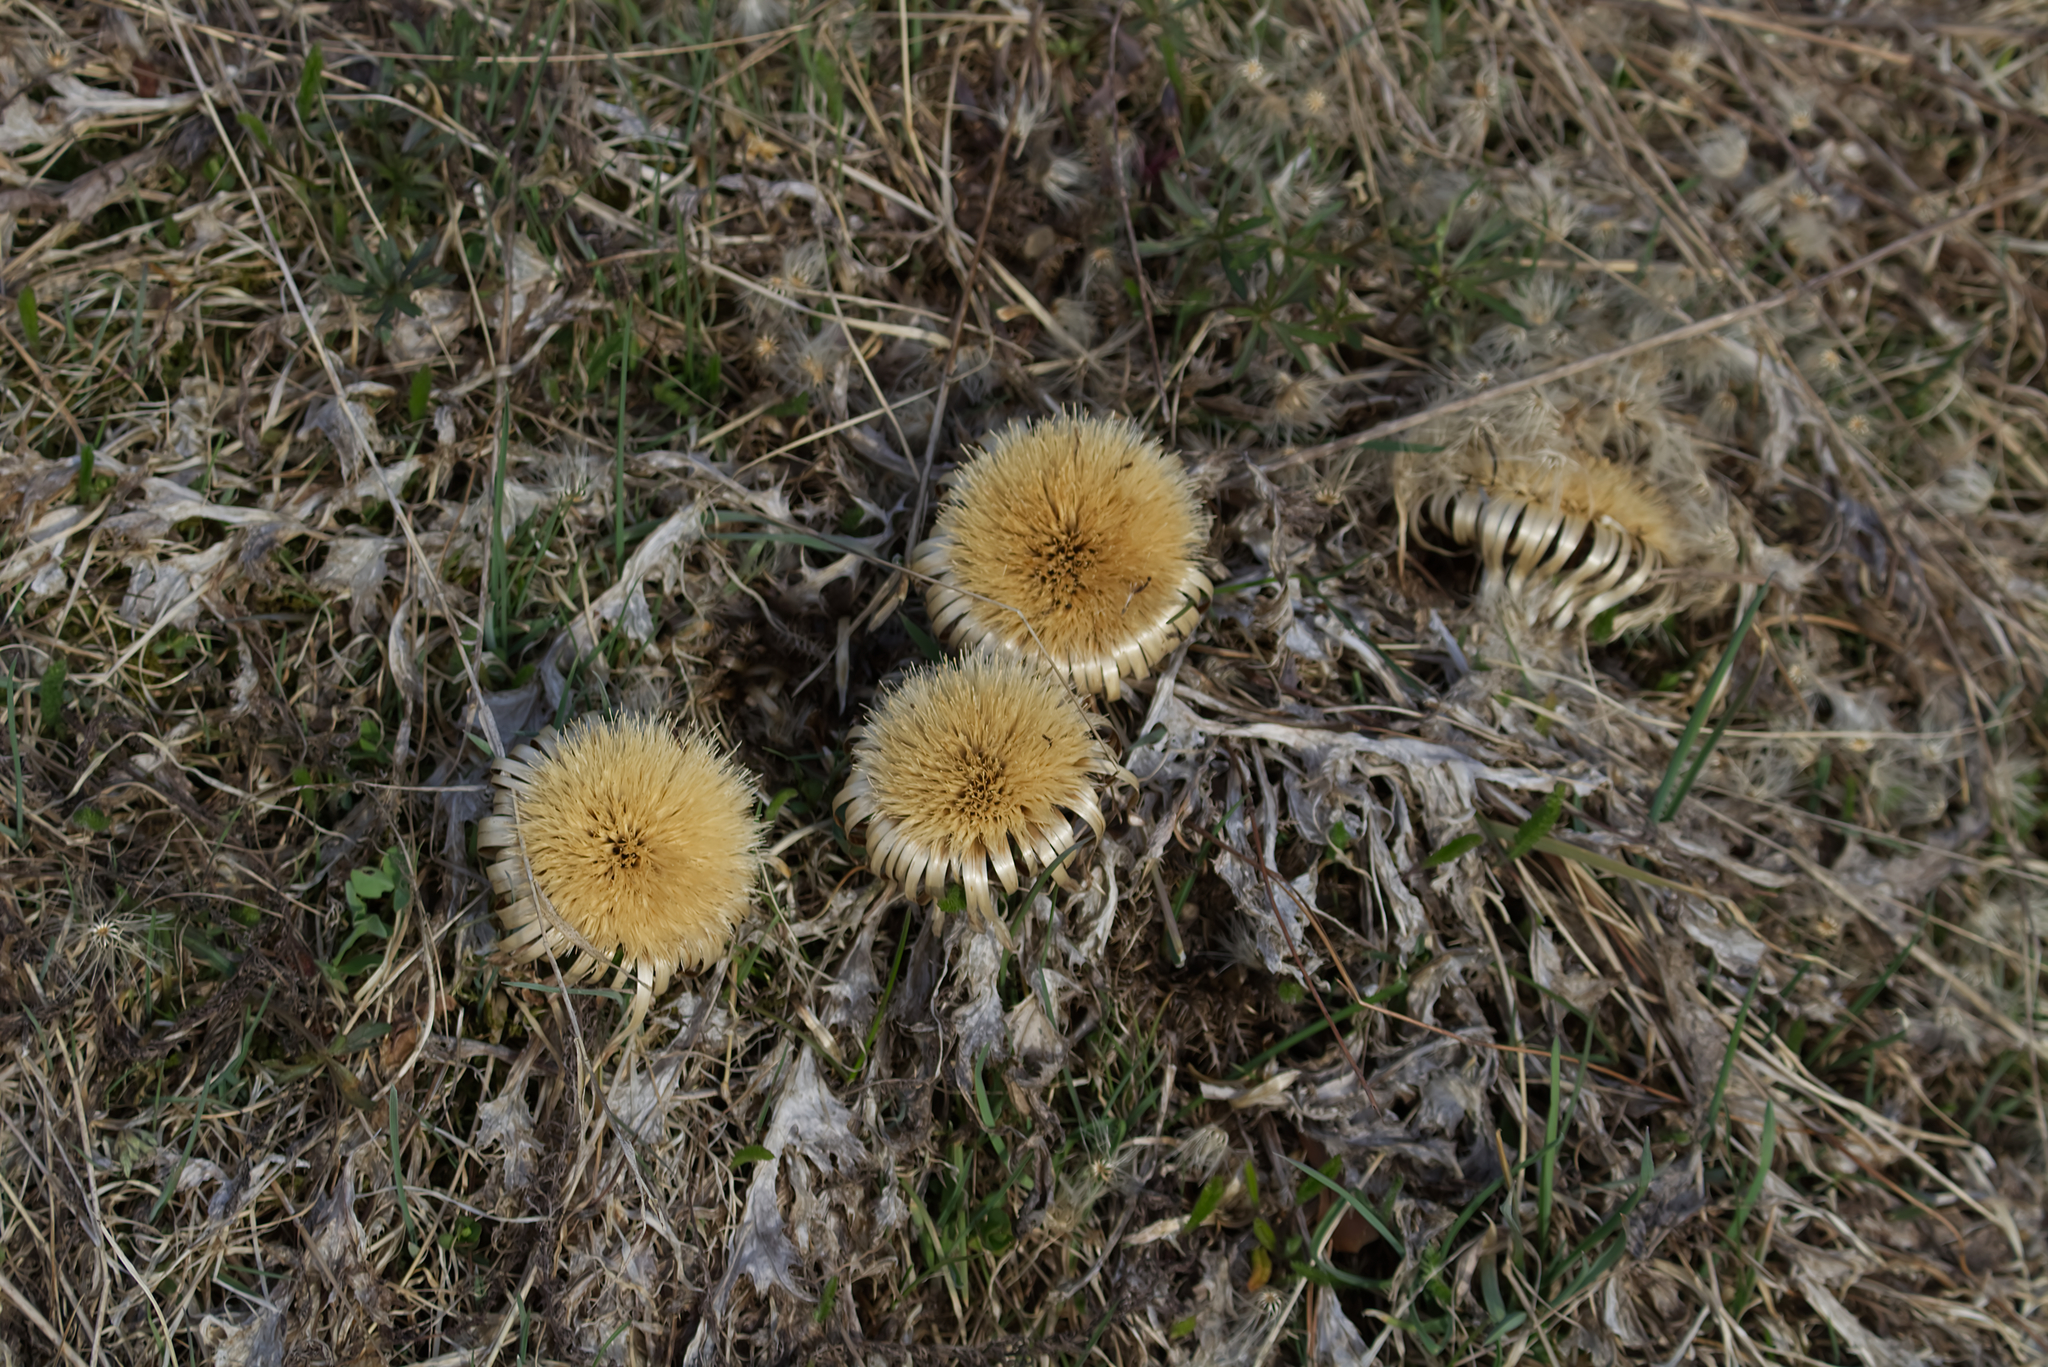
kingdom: Plantae
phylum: Tracheophyta
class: Magnoliopsida
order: Asterales
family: Asteraceae
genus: Carlina
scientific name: Carlina acaulis
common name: Stemless carline thistle
